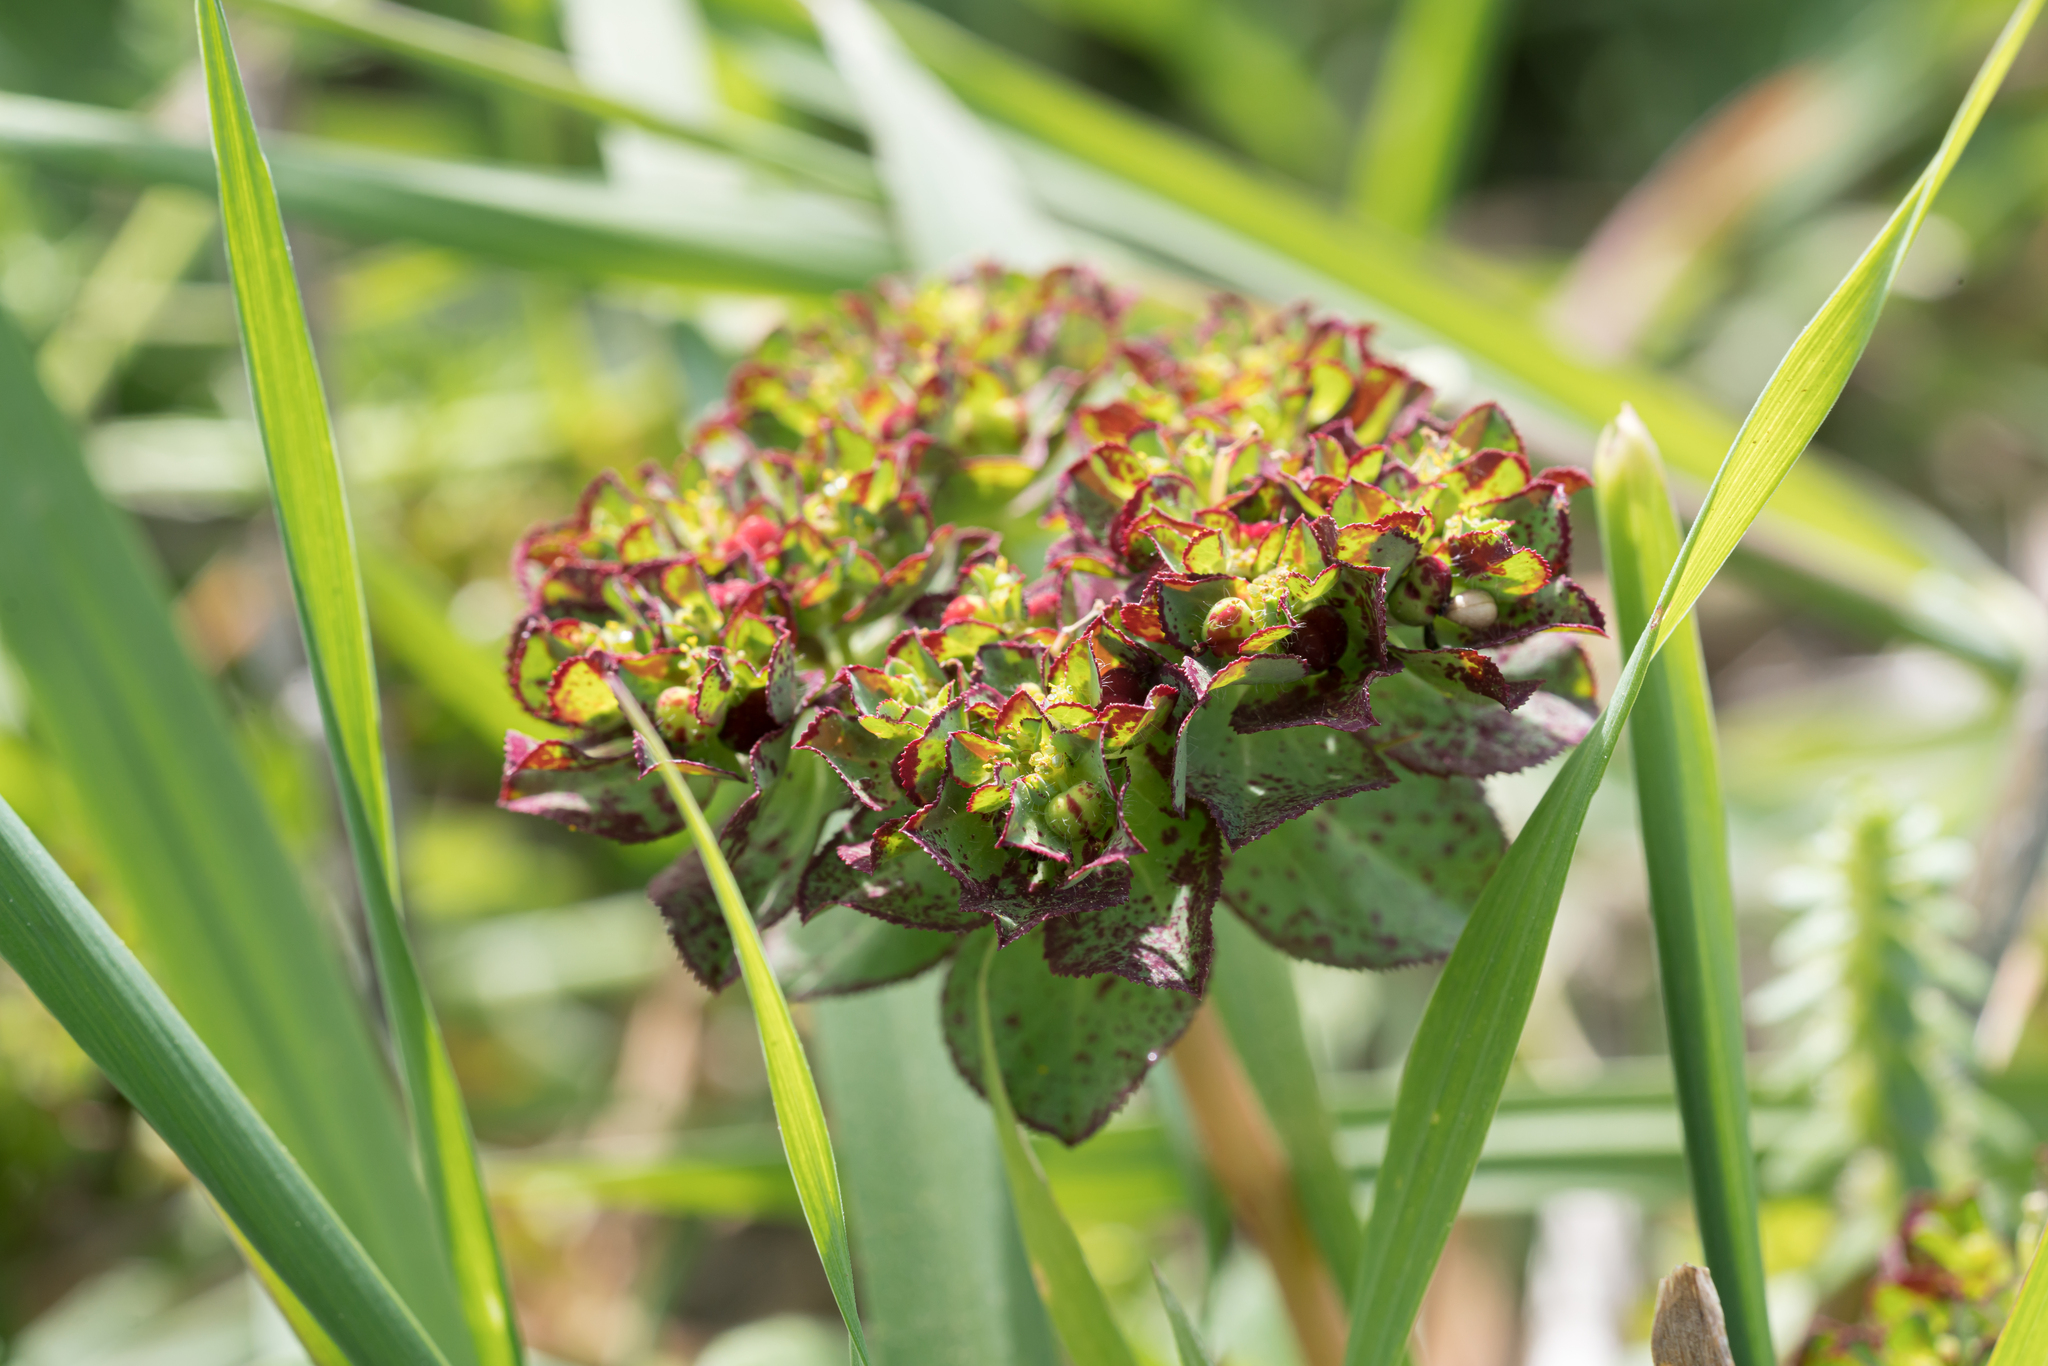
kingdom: Plantae
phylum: Tracheophyta
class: Magnoliopsida
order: Malpighiales
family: Euphorbiaceae
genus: Euphorbia
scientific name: Euphorbia helioscopia
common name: Sun spurge
